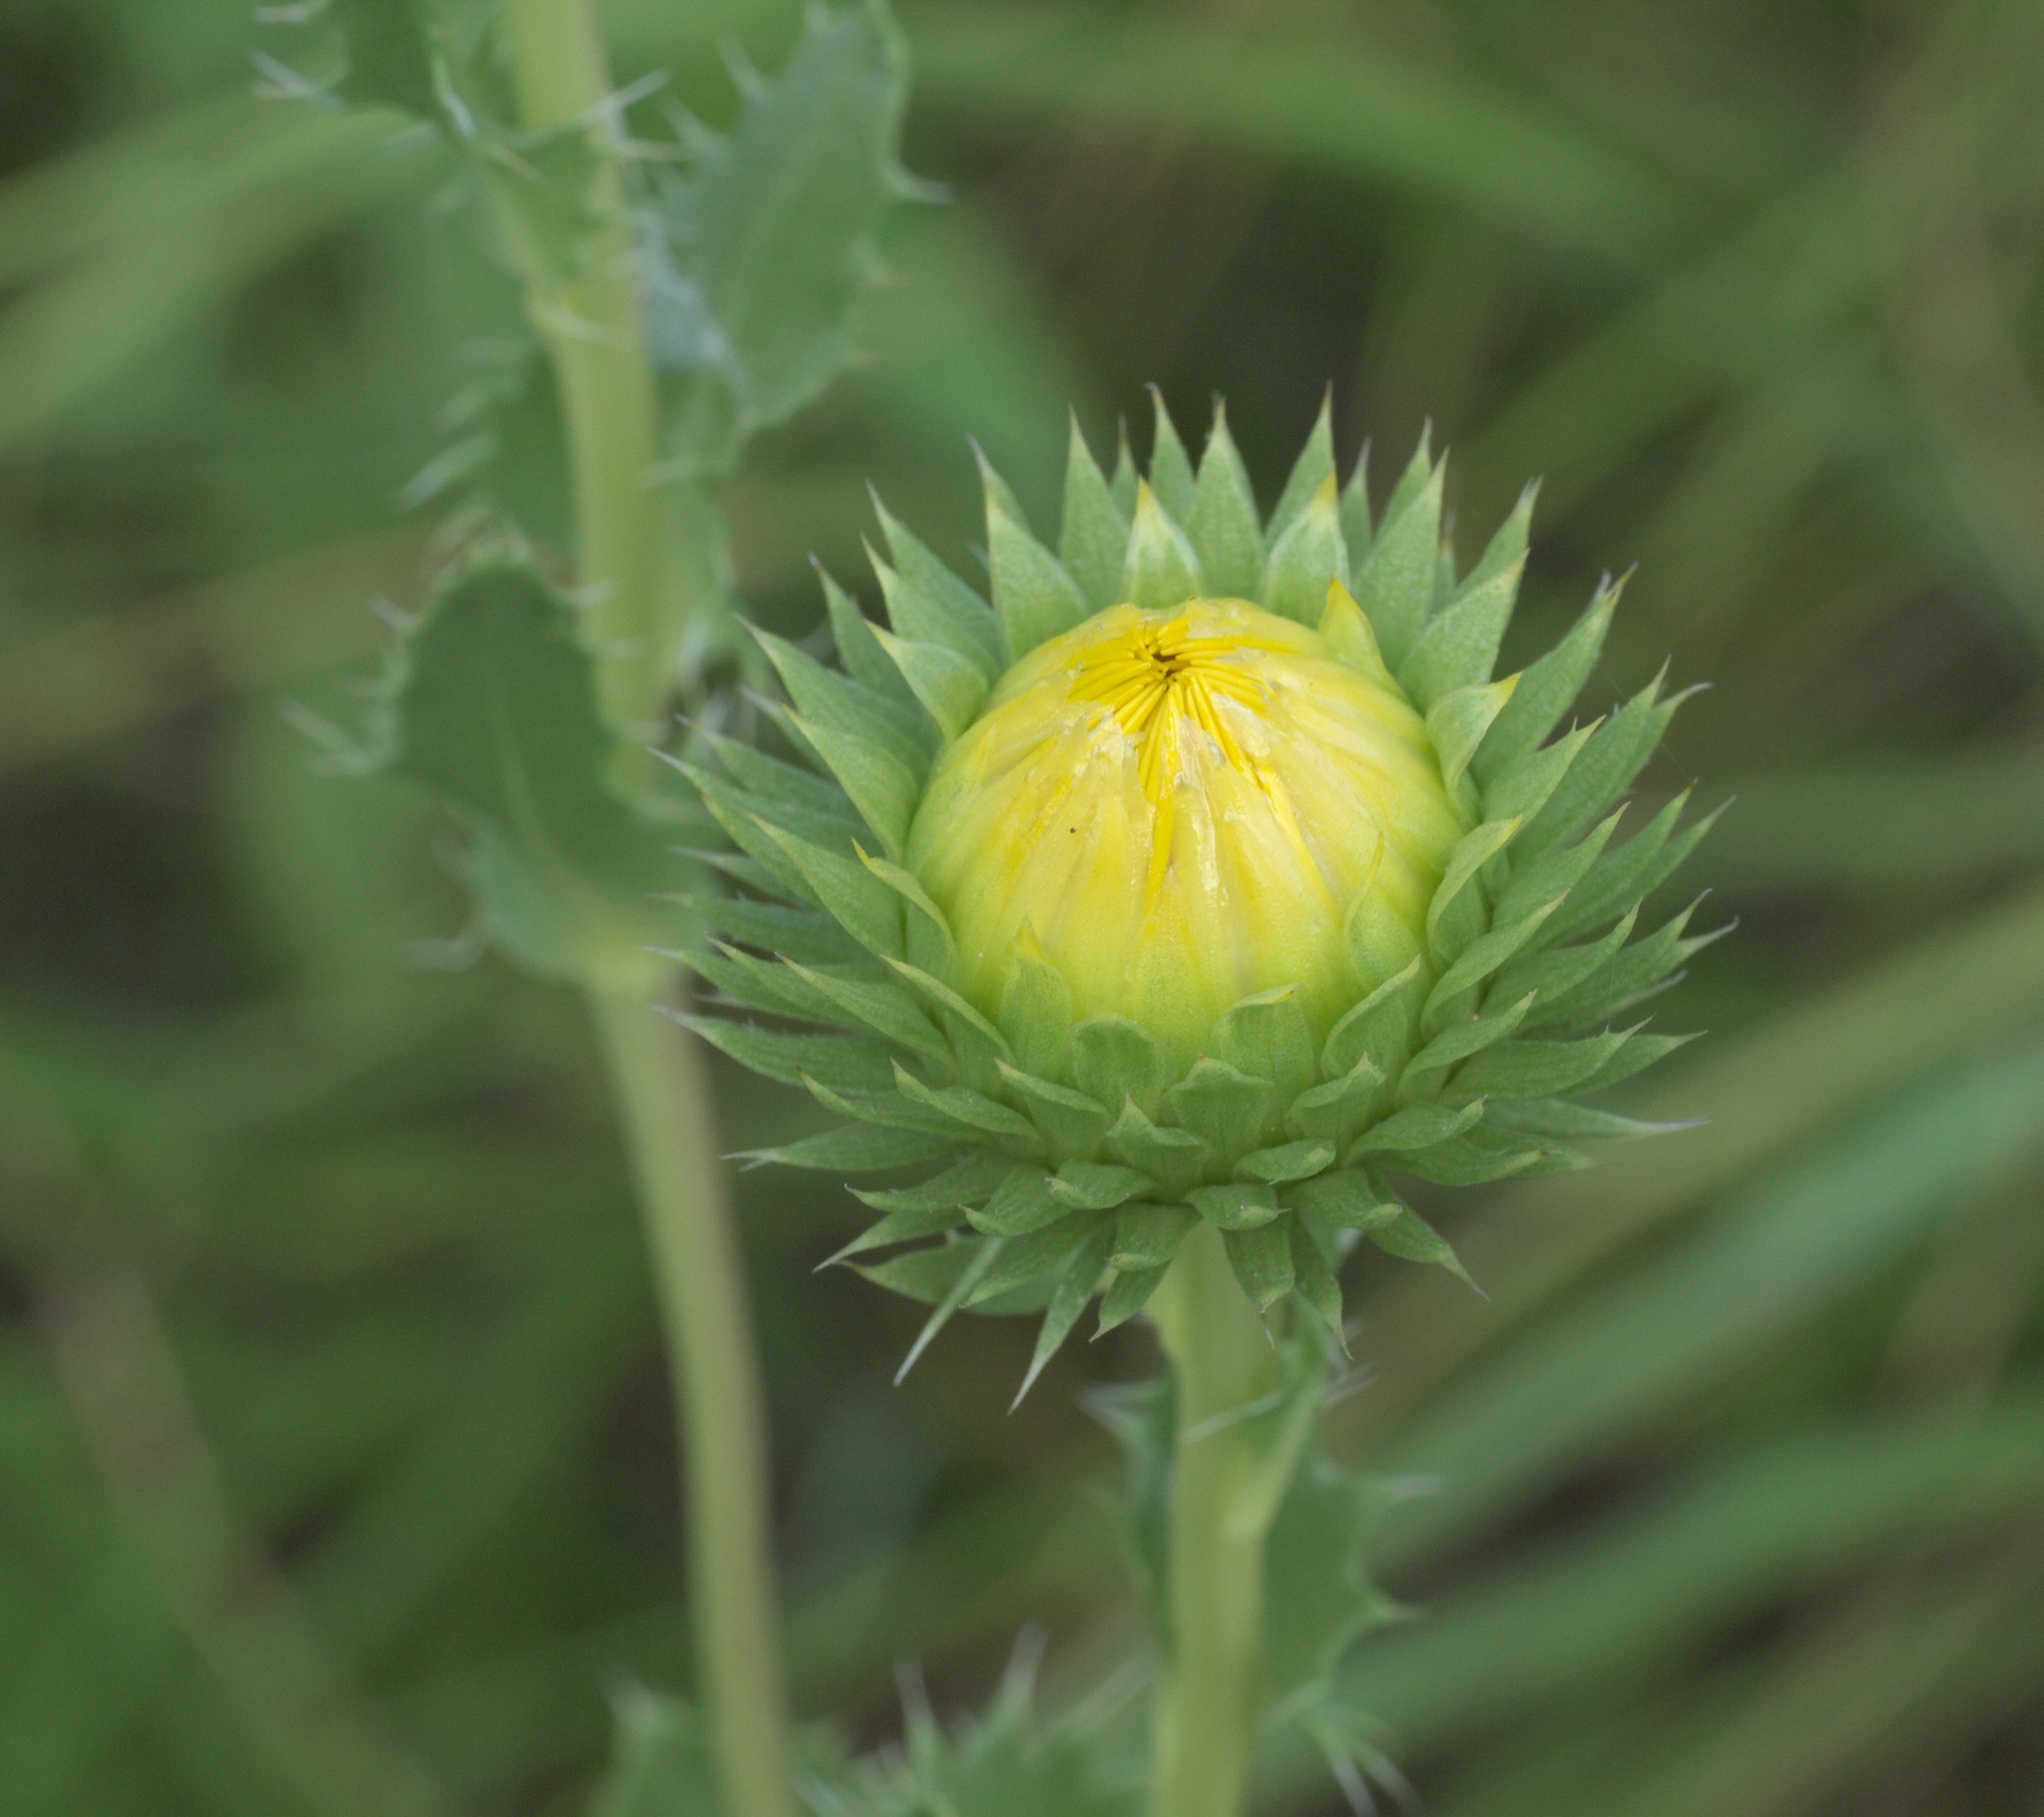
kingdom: Plantae
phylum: Tracheophyta
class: Magnoliopsida
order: Asterales
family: Asteraceae
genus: Grindelia
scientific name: Grindelia ciliata
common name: Goldenweed
